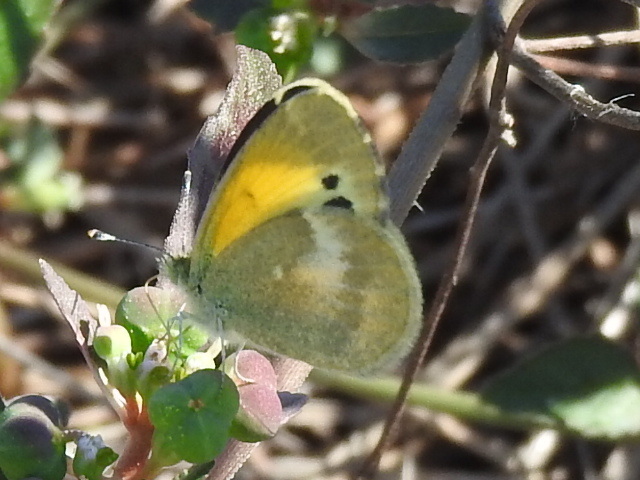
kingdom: Animalia
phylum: Arthropoda
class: Insecta
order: Lepidoptera
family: Pieridae
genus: Nathalis
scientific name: Nathalis iole
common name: Dainty sulphur
